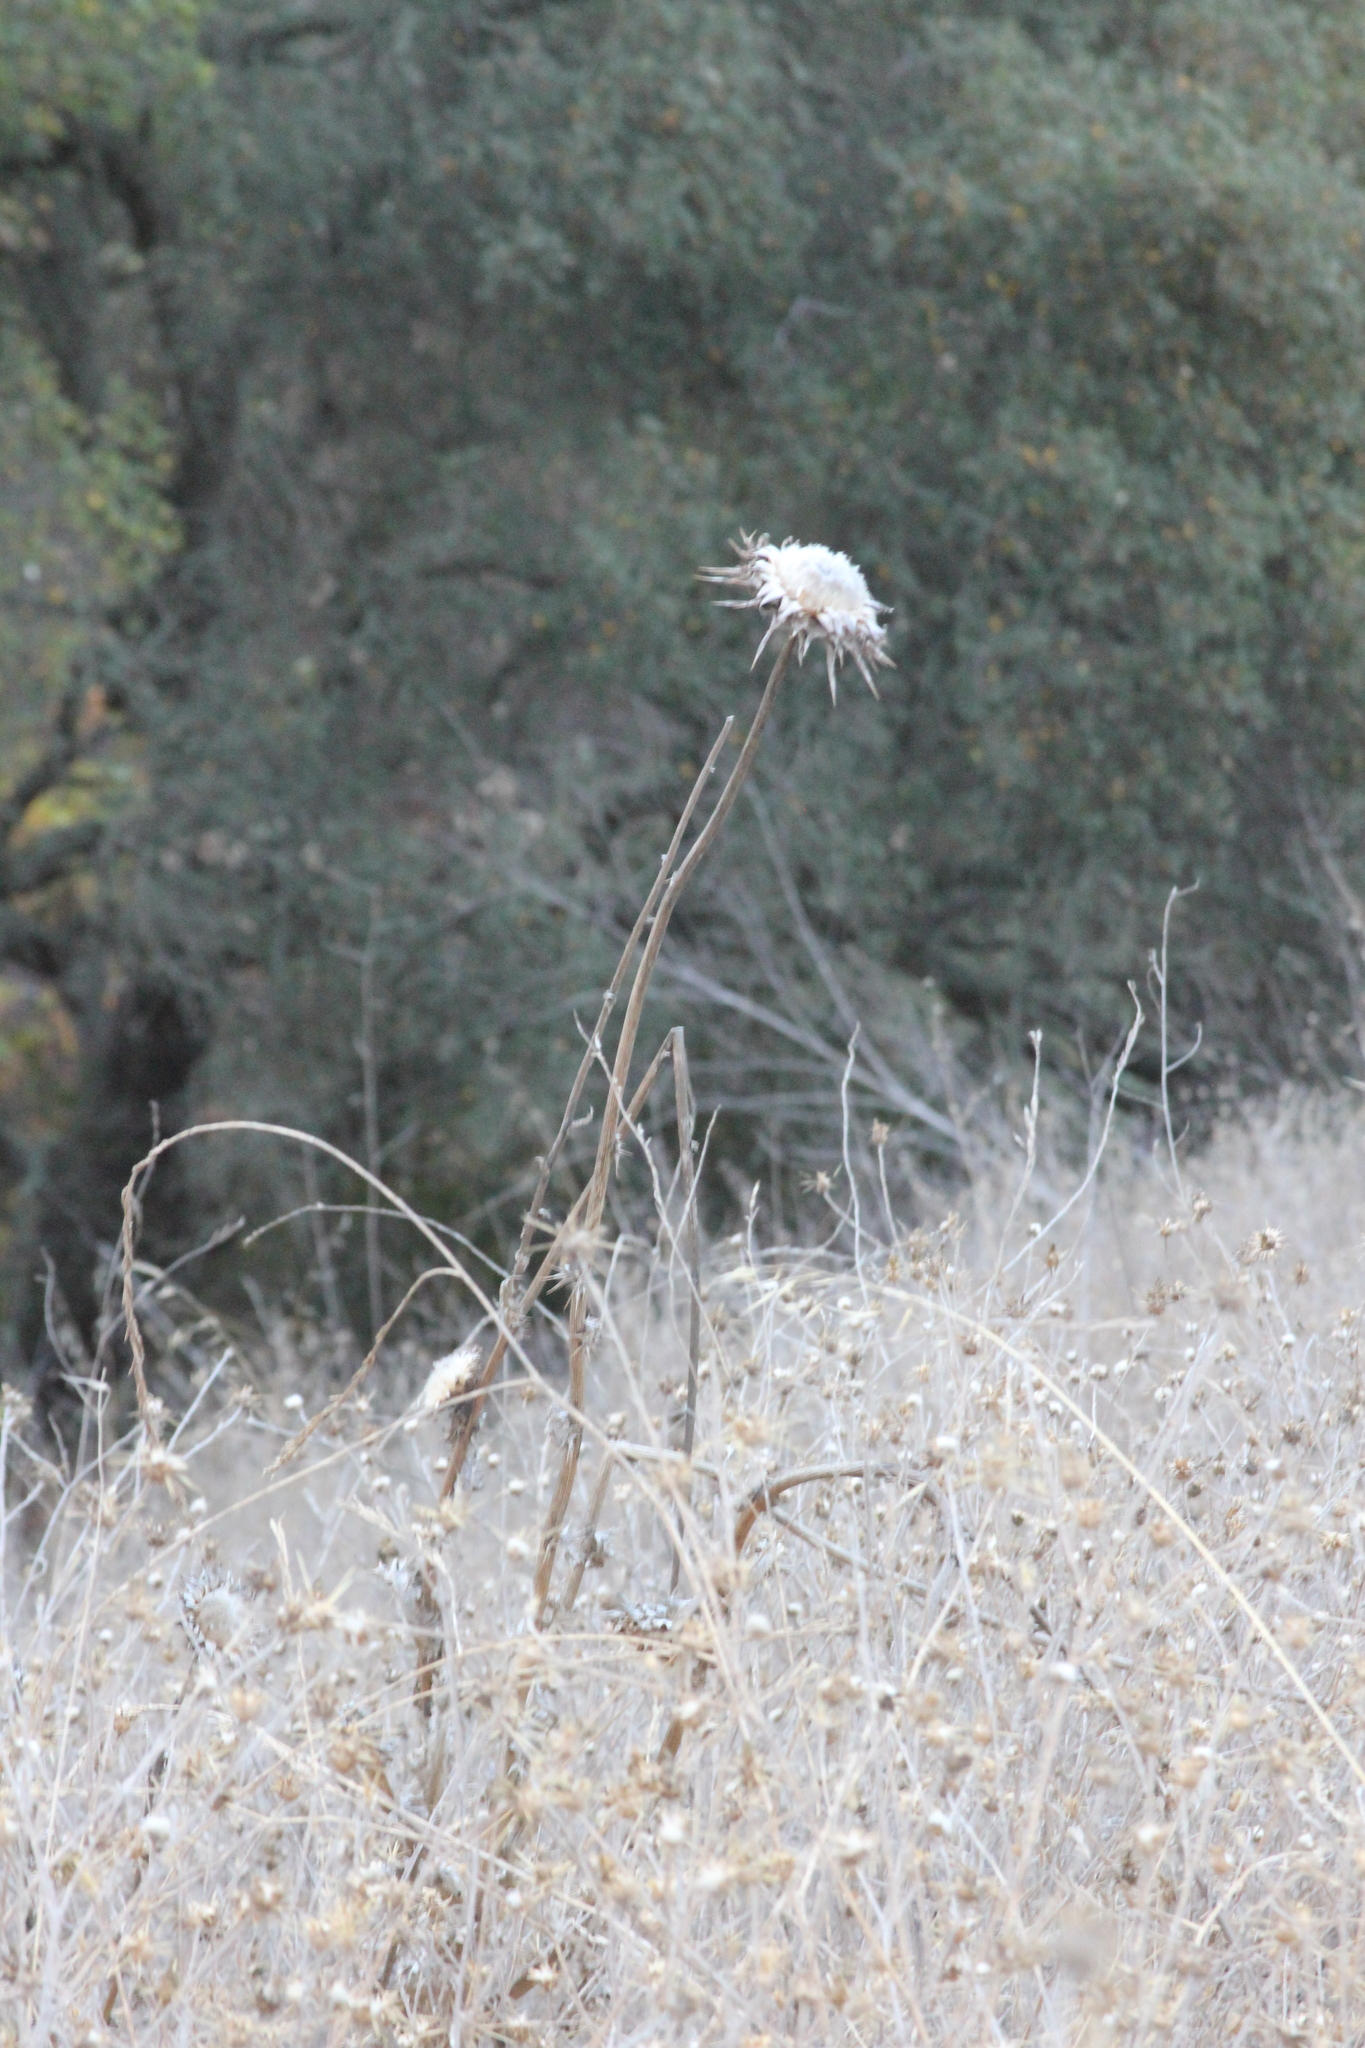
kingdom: Plantae
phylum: Tracheophyta
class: Magnoliopsida
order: Asterales
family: Asteraceae
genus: Silybum
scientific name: Silybum marianum
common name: Milk thistle
